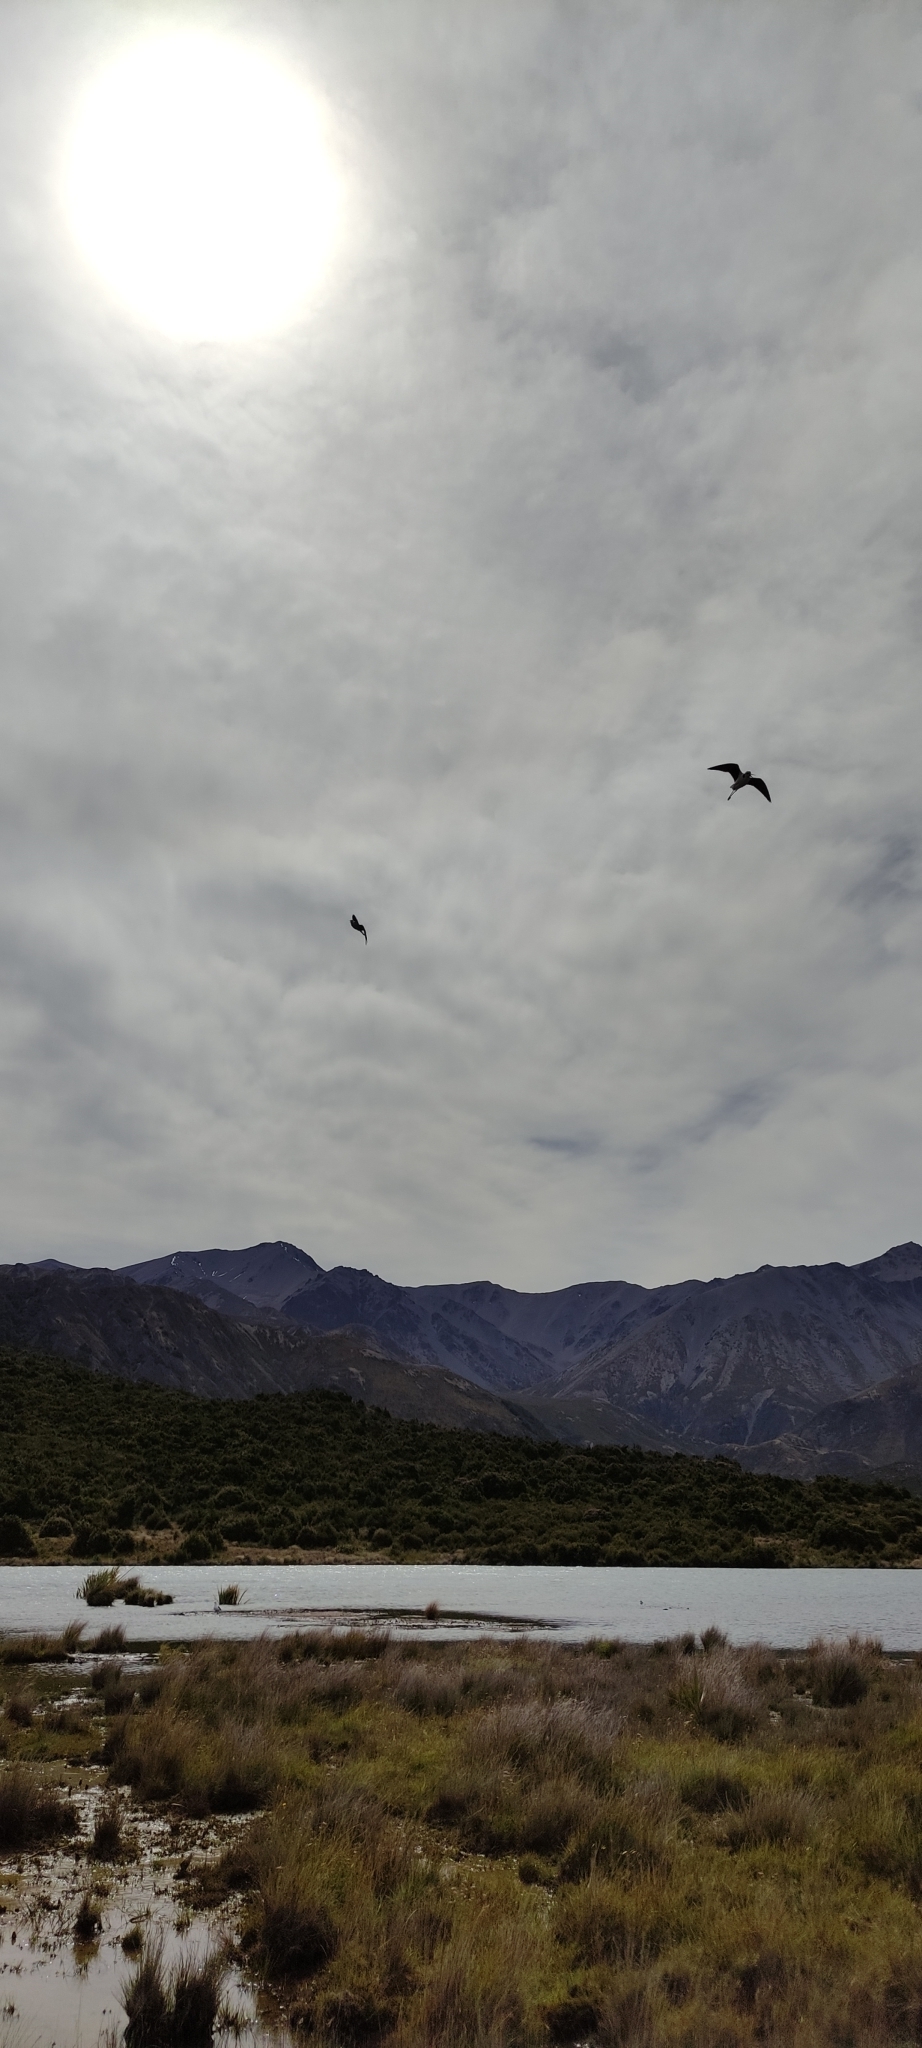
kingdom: Animalia
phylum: Chordata
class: Aves
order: Charadriiformes
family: Recurvirostridae
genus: Himantopus
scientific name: Himantopus leucocephalus
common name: White-headed stilt
